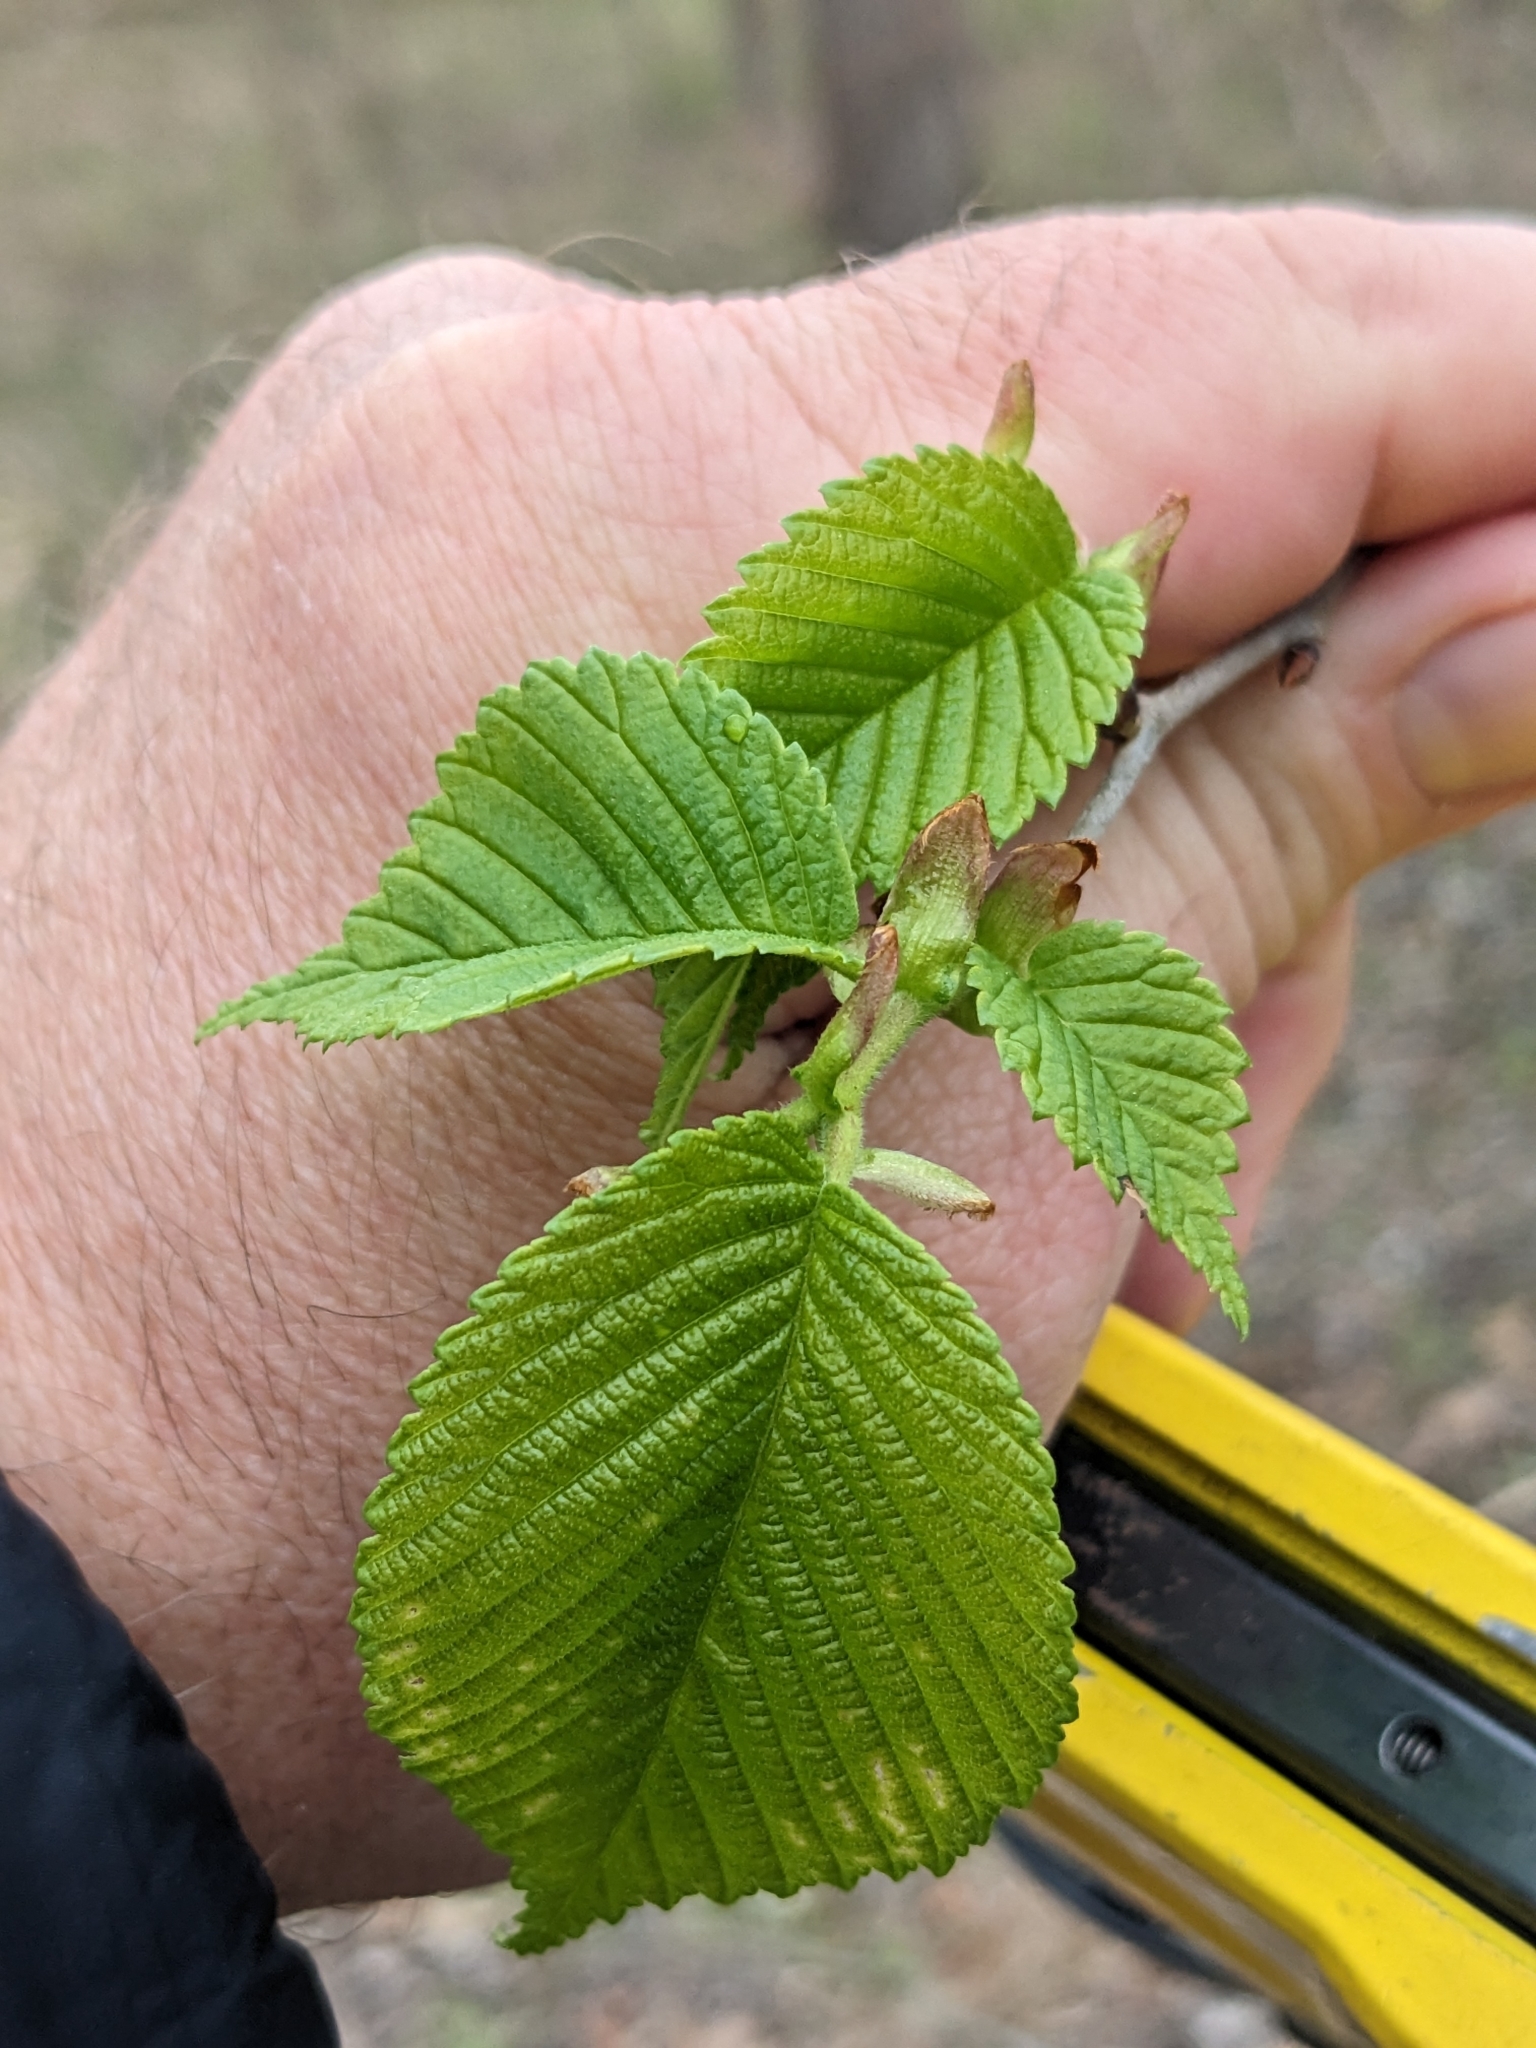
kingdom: Plantae
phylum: Tracheophyta
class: Magnoliopsida
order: Rosales
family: Ulmaceae
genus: Ulmus
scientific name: Ulmus rubra
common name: Slippery elm
